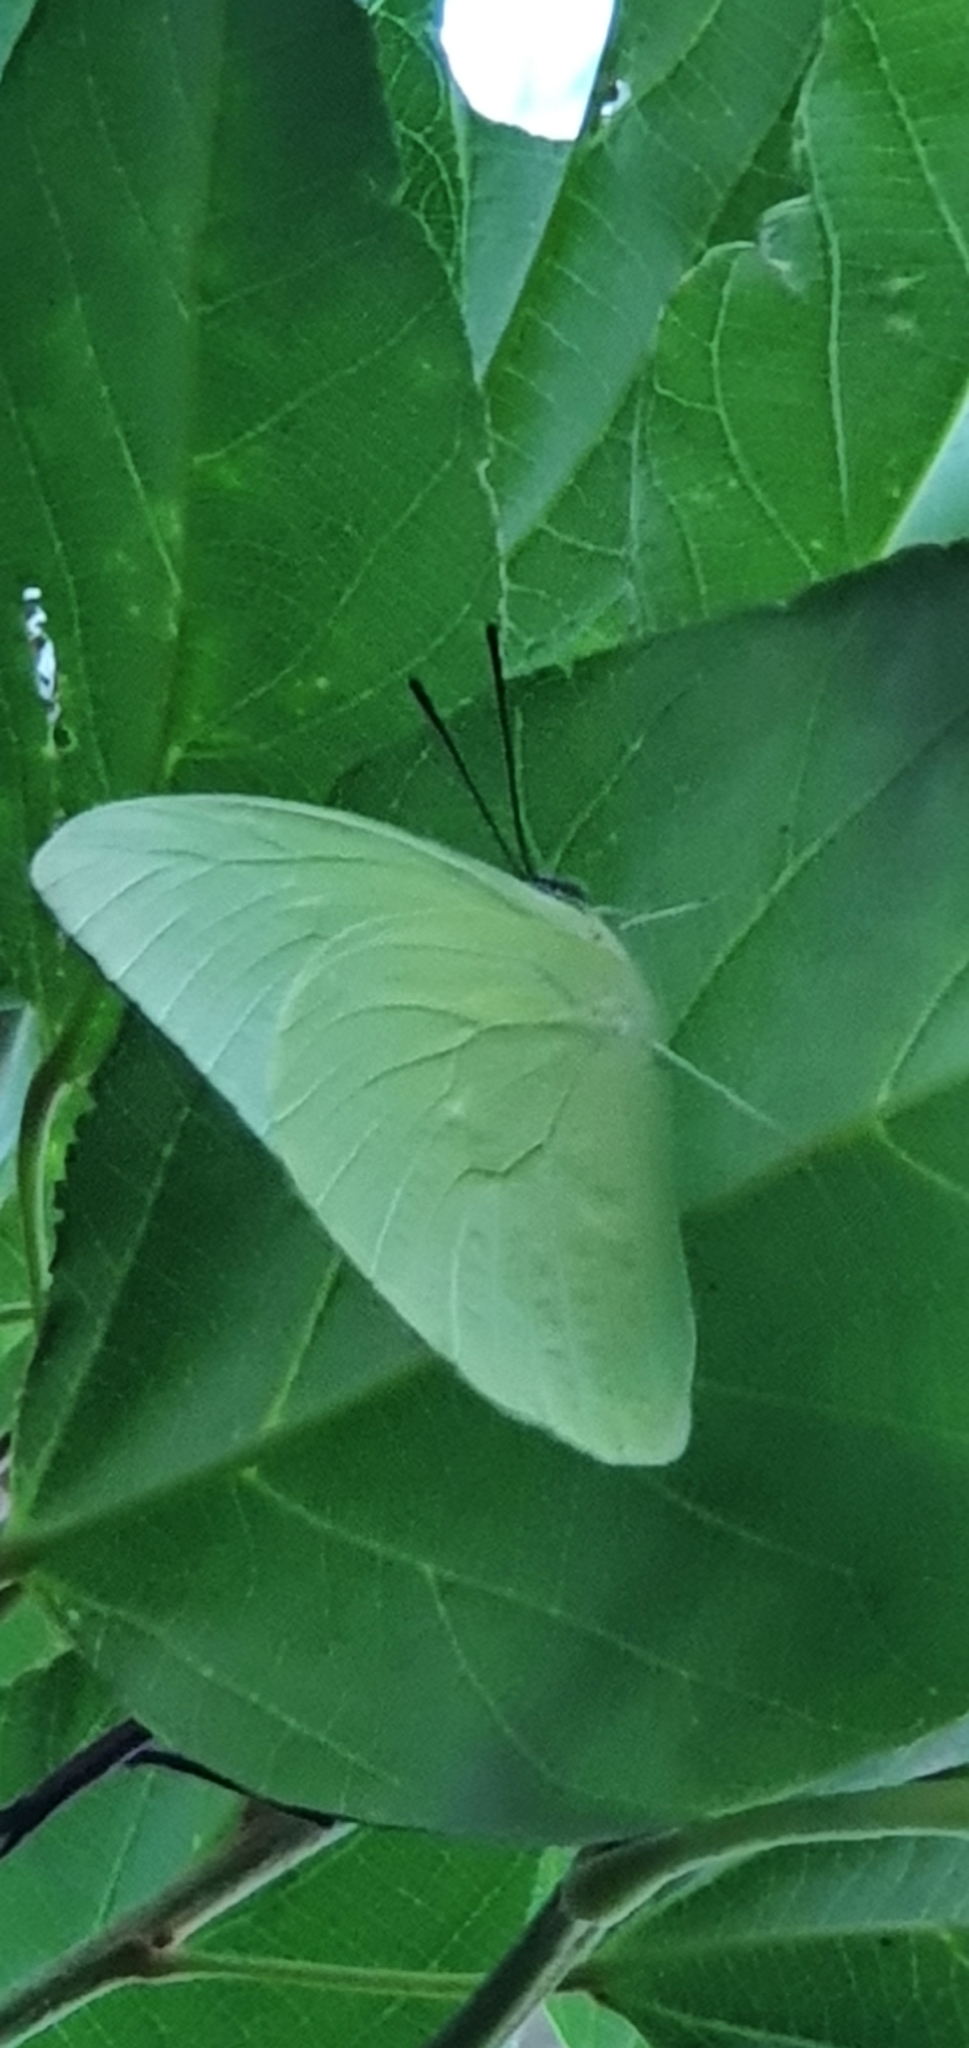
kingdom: Animalia
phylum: Arthropoda
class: Insecta
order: Lepidoptera
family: Pieridae
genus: Catopsilia
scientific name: Catopsilia pomona
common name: Common emigrant
